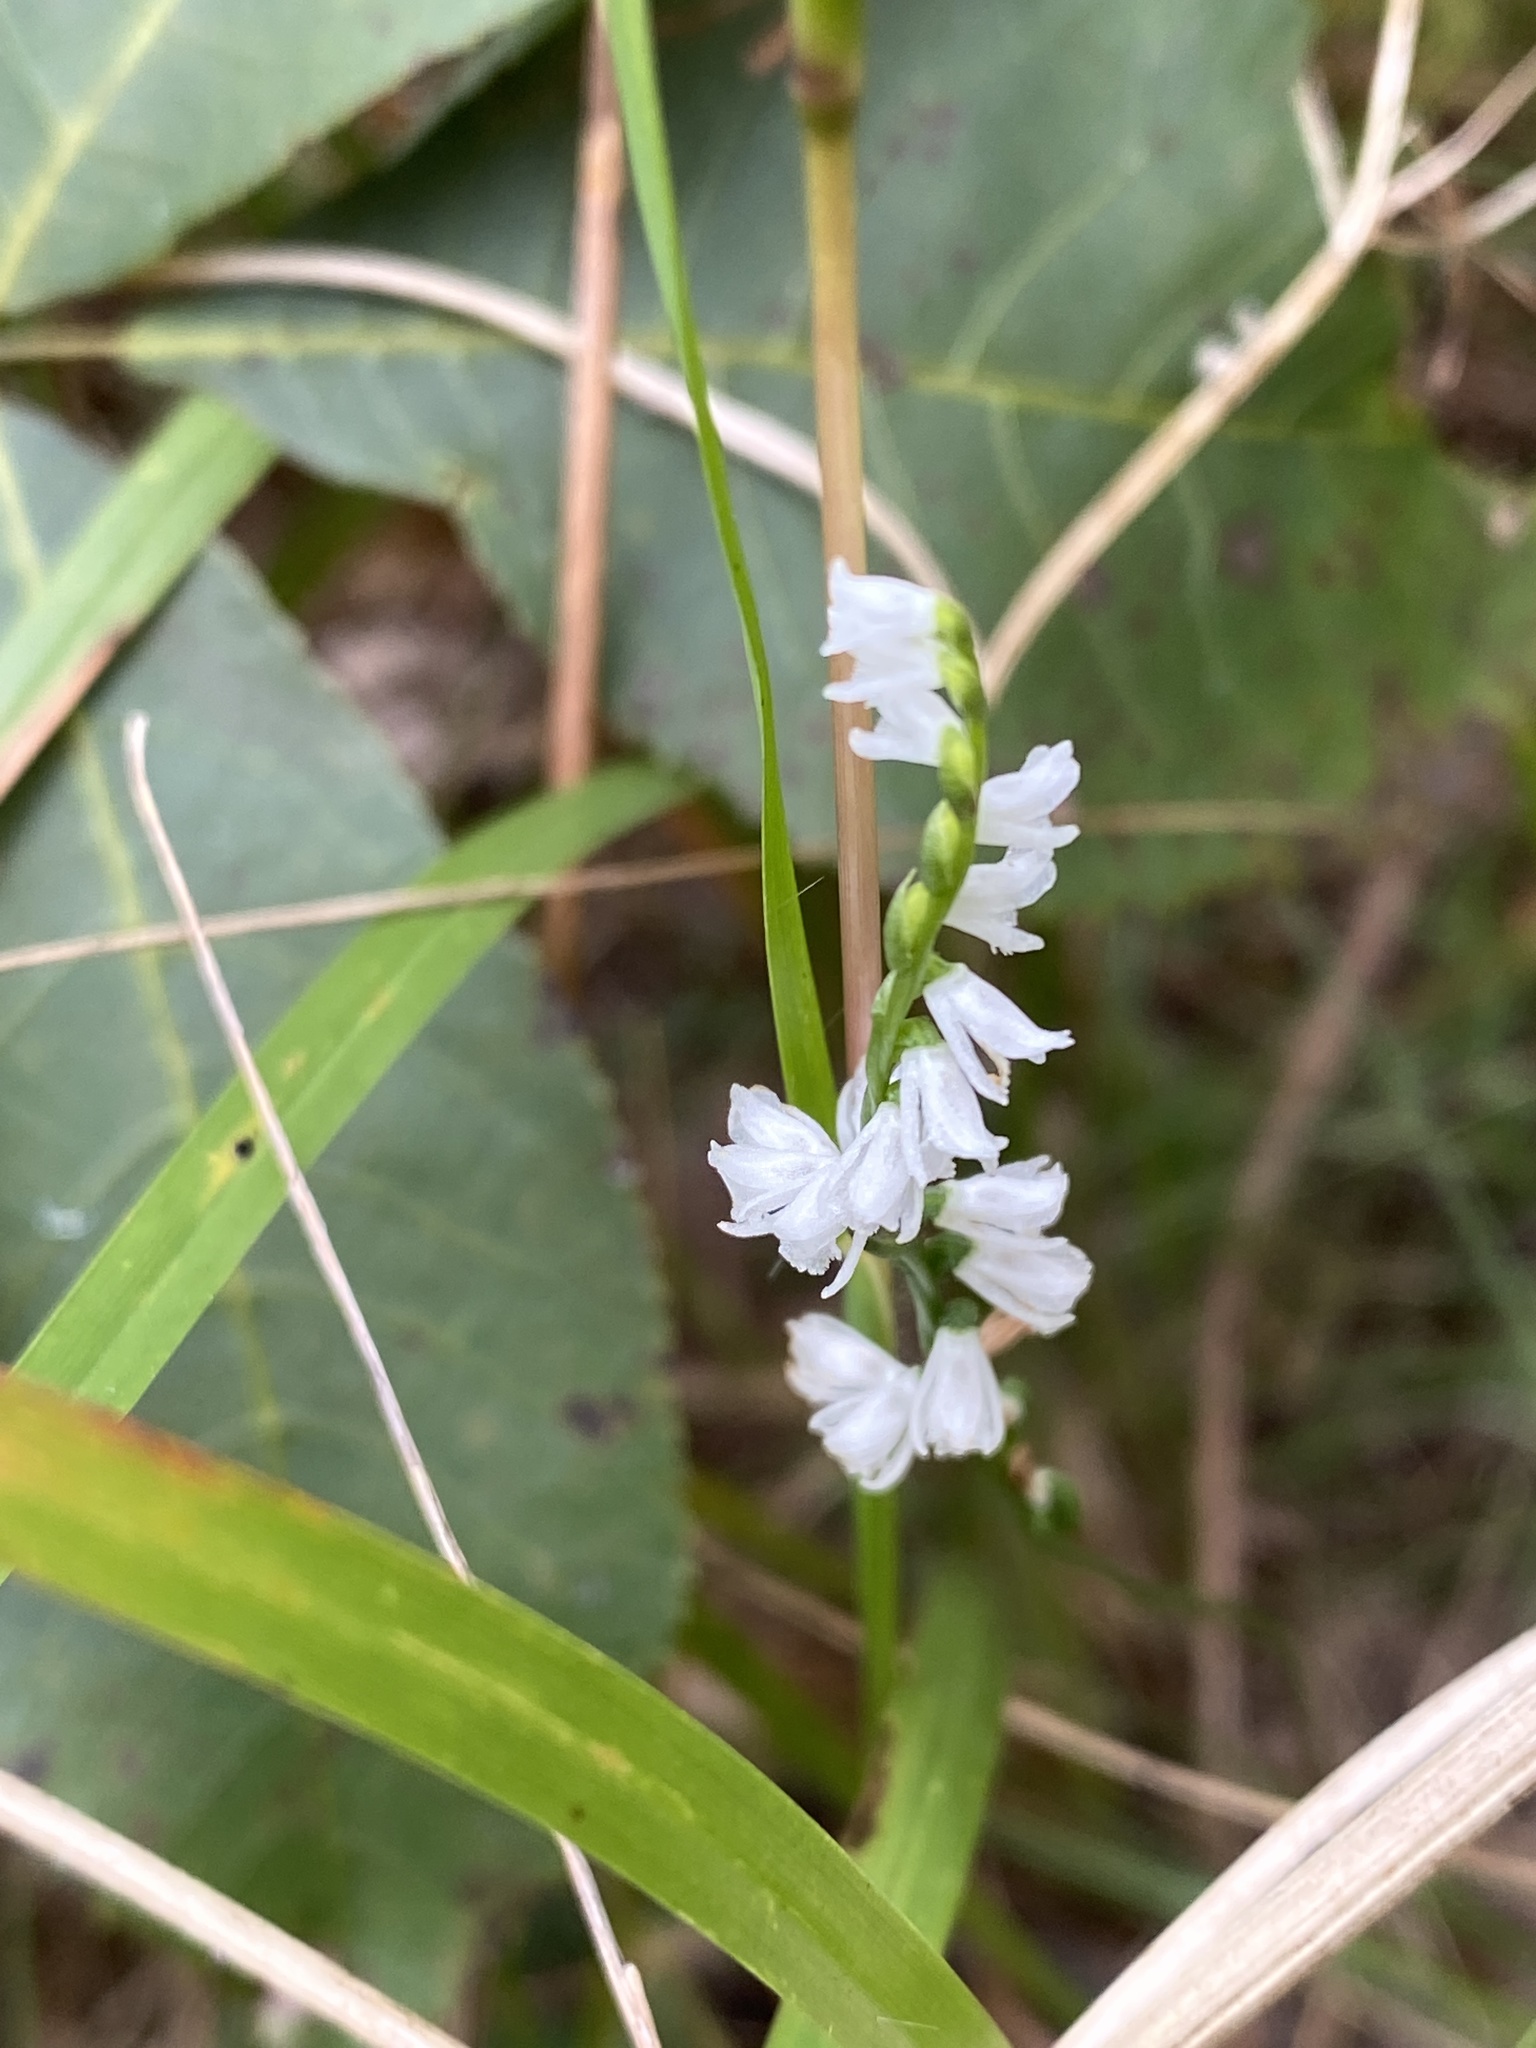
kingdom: Plantae
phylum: Tracheophyta
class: Liliopsida
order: Asparagales
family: Orchidaceae
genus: Spiranthes
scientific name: Spiranthes tuberosa
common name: Little ladies'-tresses
